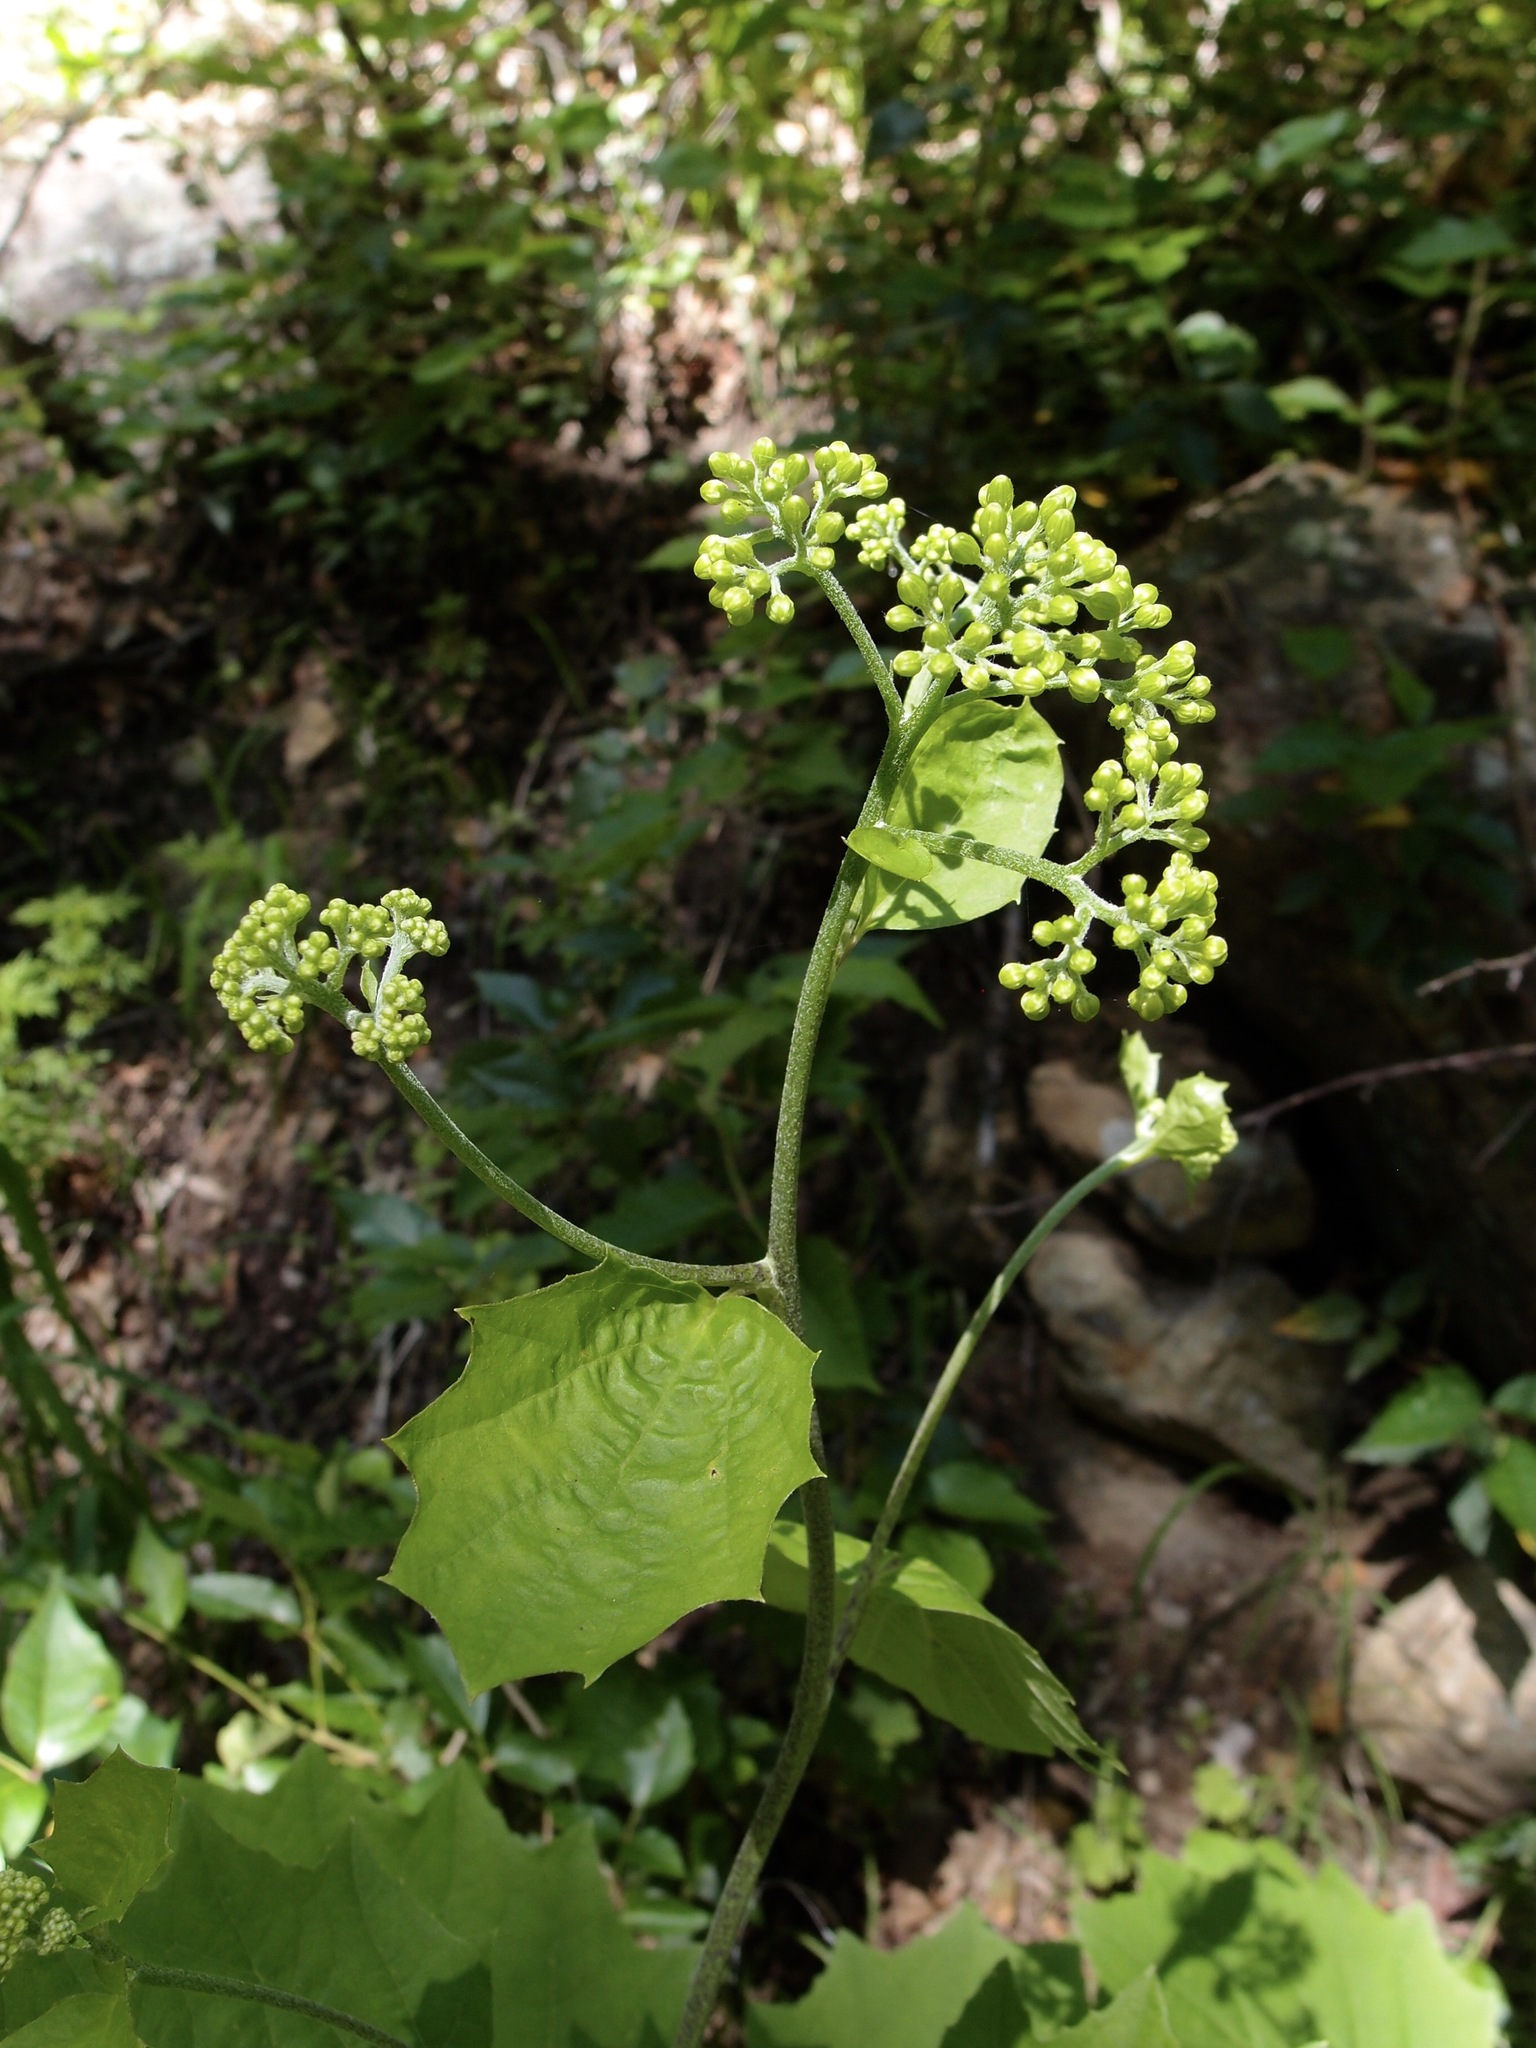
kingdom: Plantae
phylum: Tracheophyta
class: Magnoliopsida
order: Asterales
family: Asteraceae
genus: Roldana
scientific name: Roldana hartwegii
